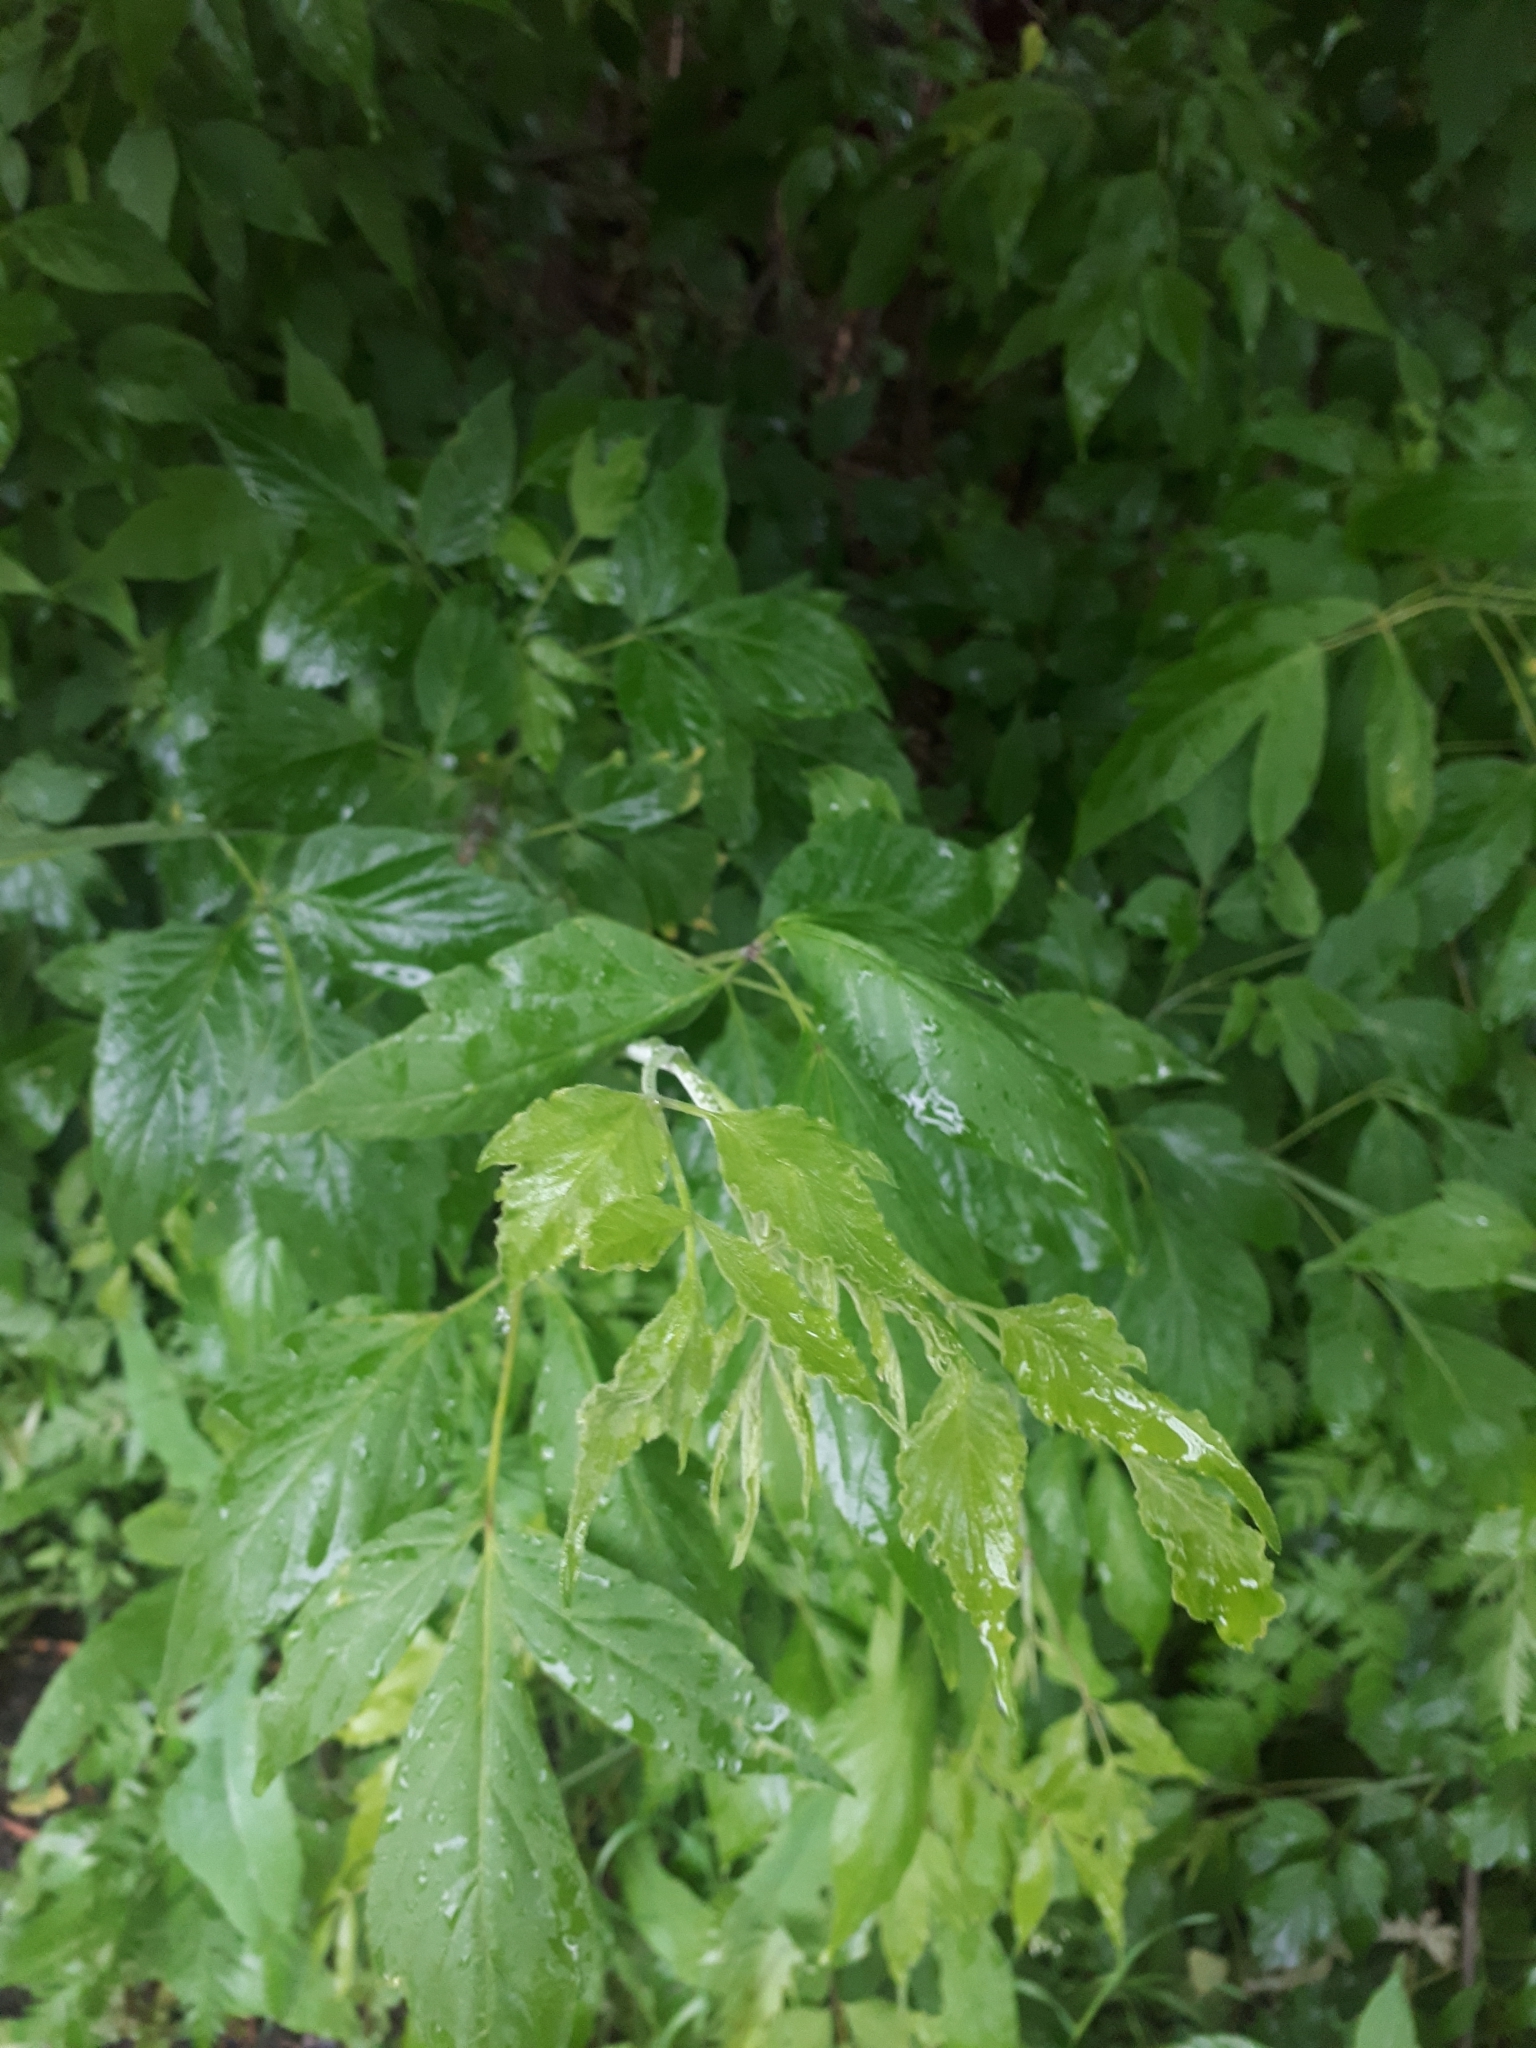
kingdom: Plantae
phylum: Tracheophyta
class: Magnoliopsida
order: Sapindales
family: Sapindaceae
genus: Acer
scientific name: Acer negundo
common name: Ashleaf maple
